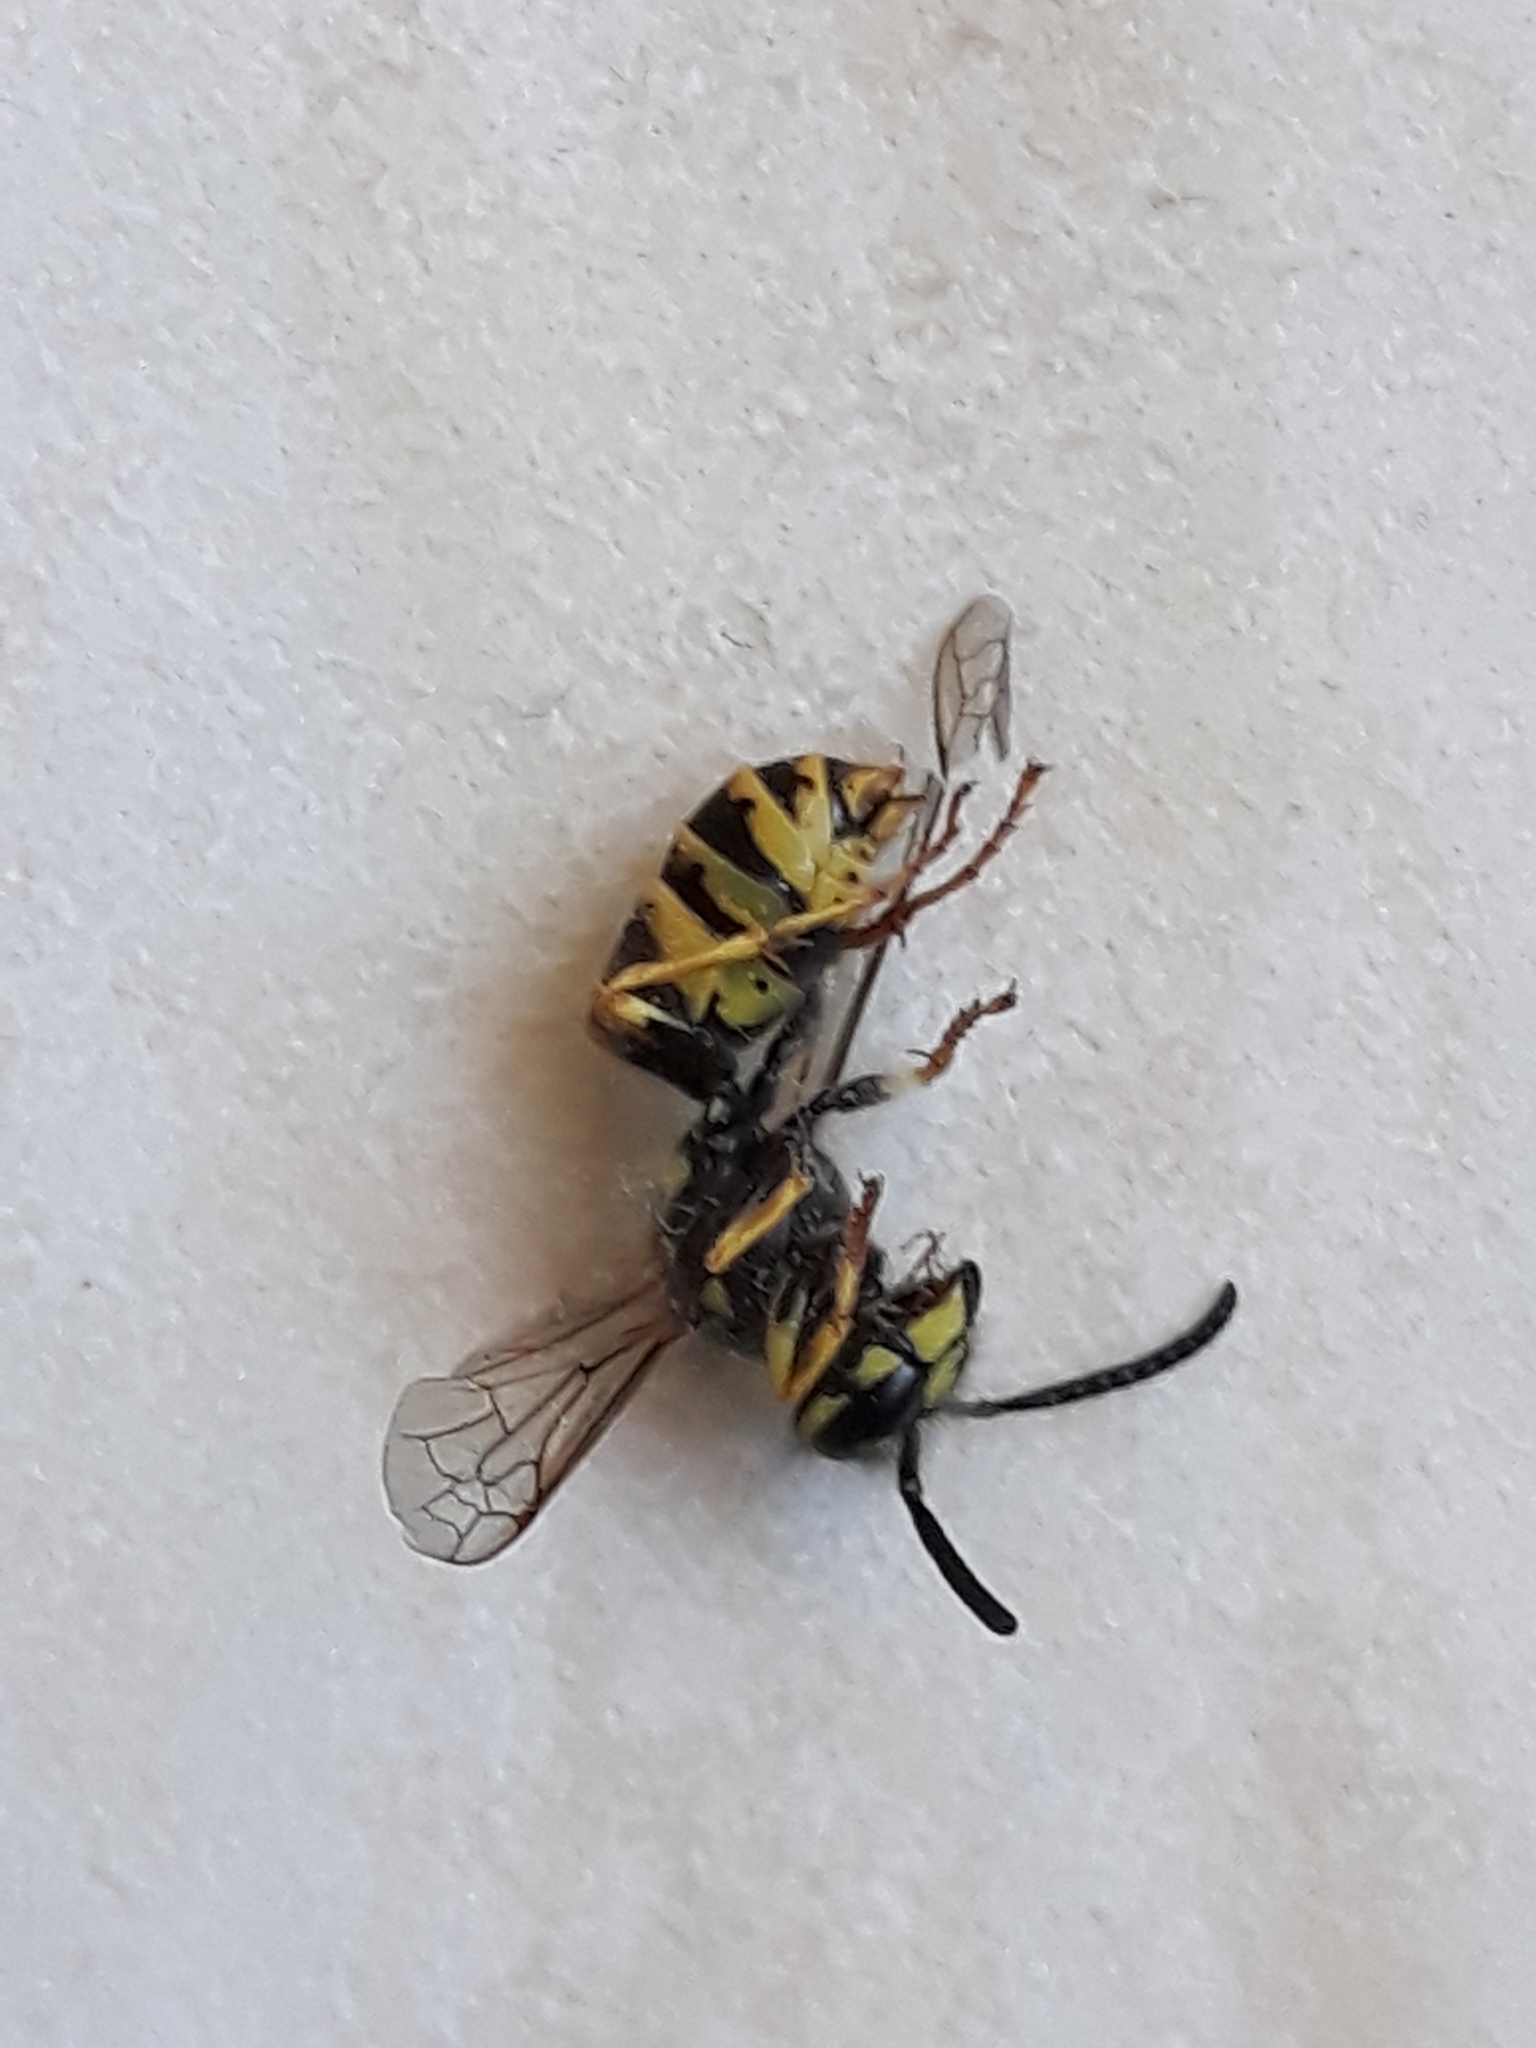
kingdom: Animalia
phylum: Arthropoda
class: Insecta
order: Hymenoptera
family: Vespidae
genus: Vespula
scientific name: Vespula vulgaris
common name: Common wasp
